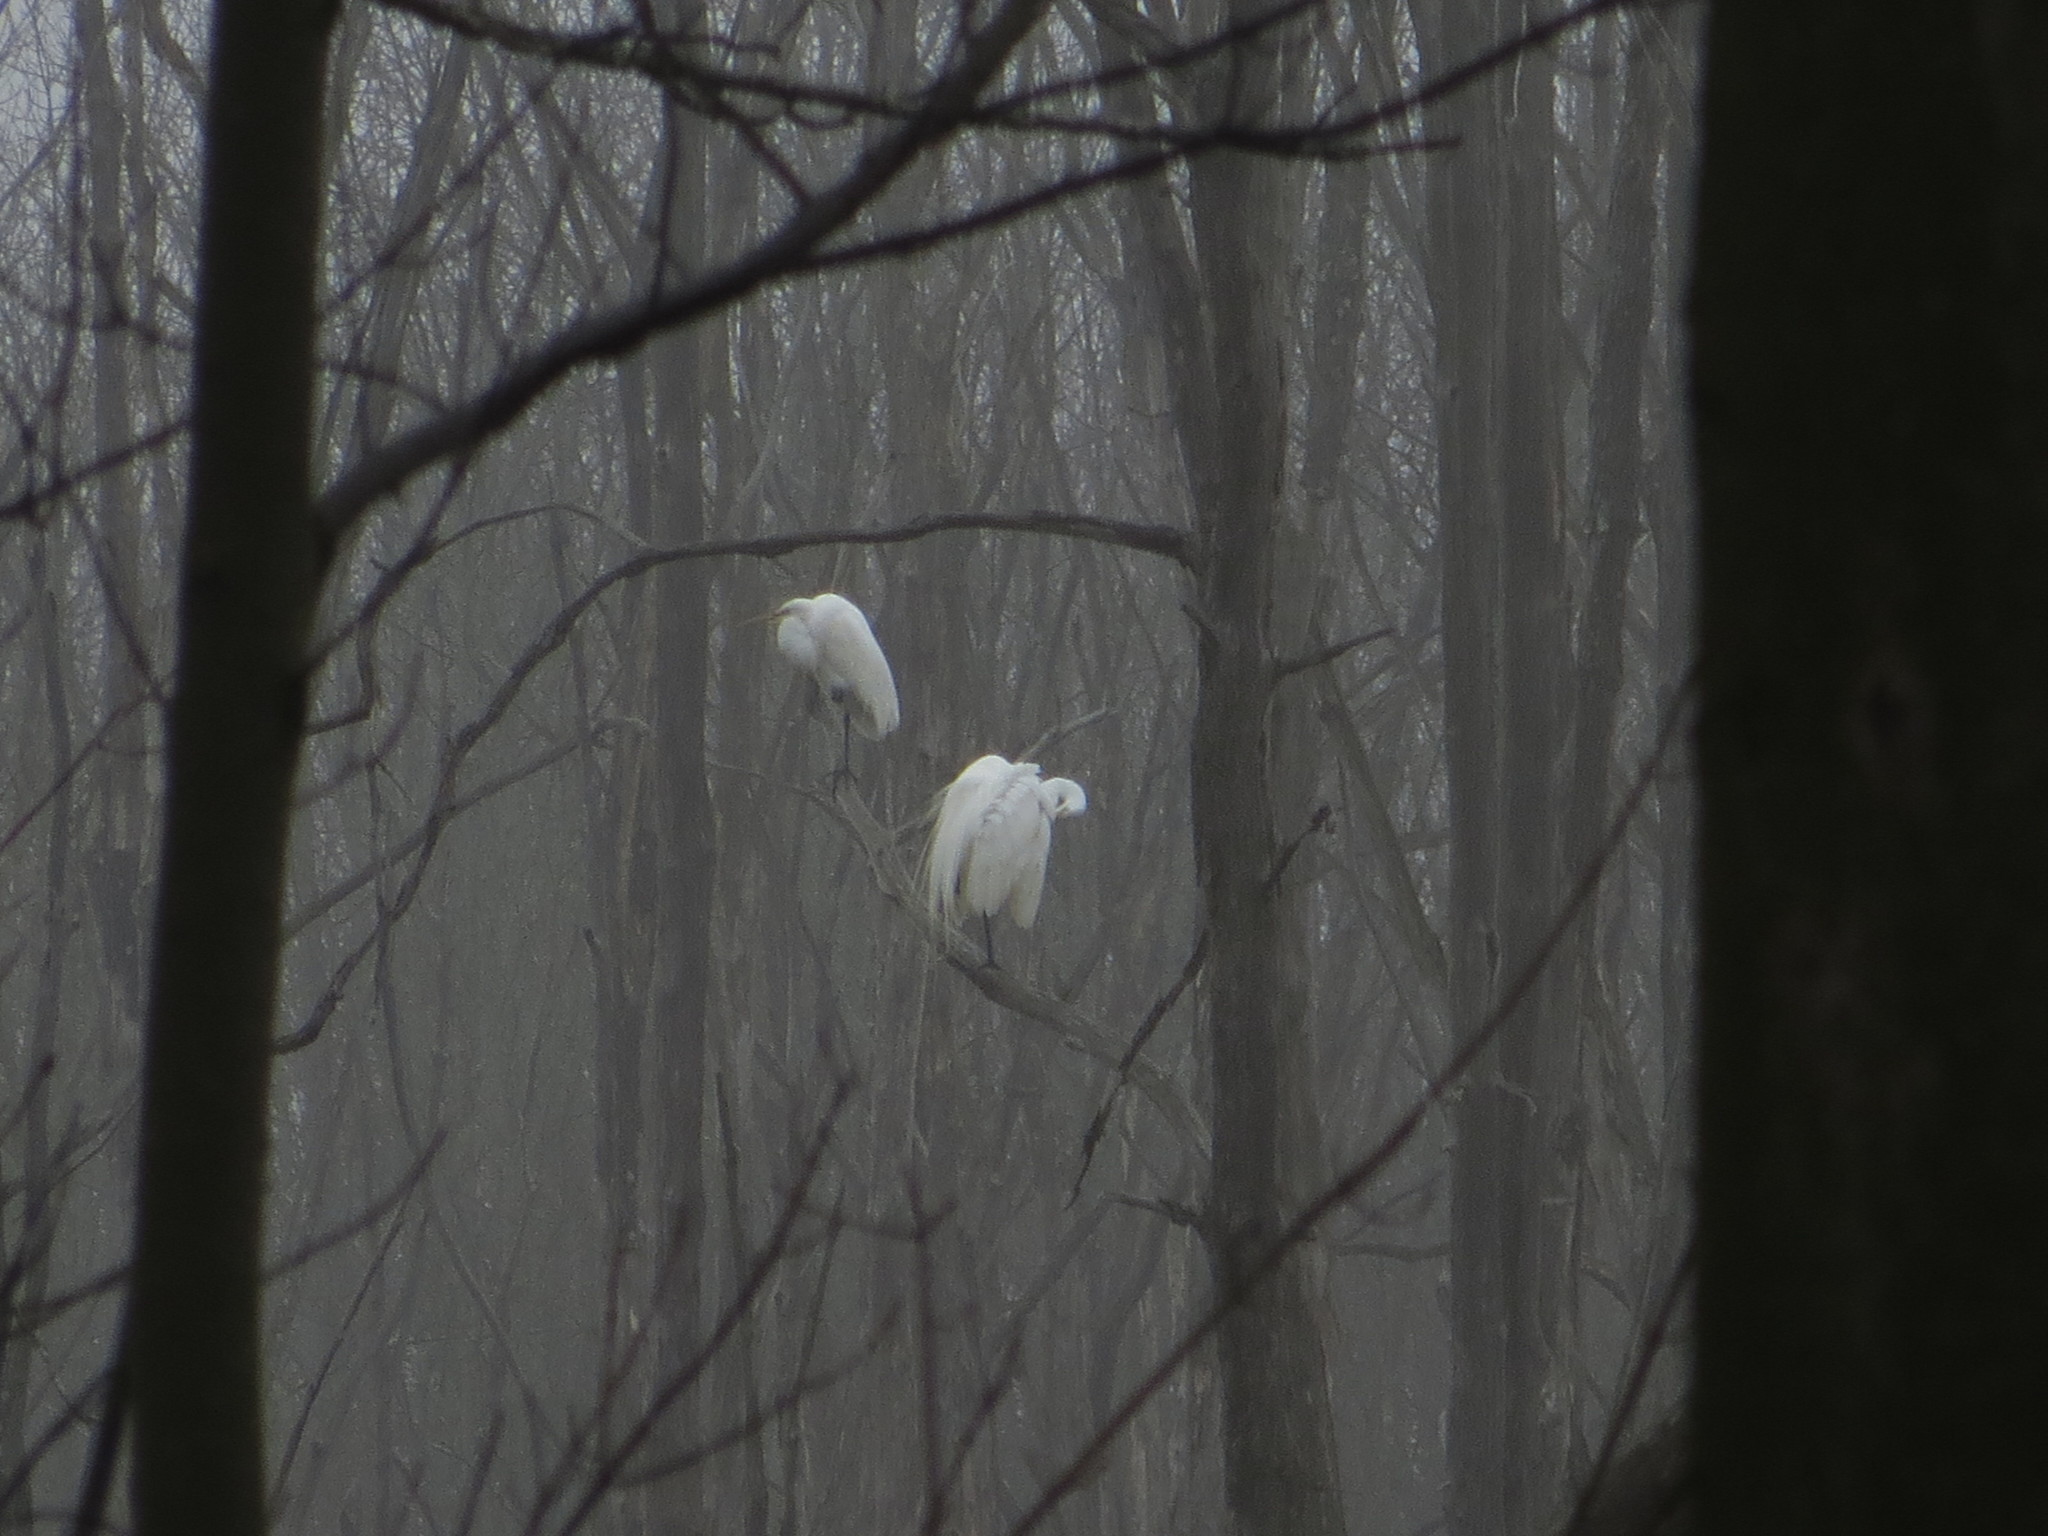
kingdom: Animalia
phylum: Chordata
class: Aves
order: Pelecaniformes
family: Ardeidae
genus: Ardea
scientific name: Ardea alba
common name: Great egret
